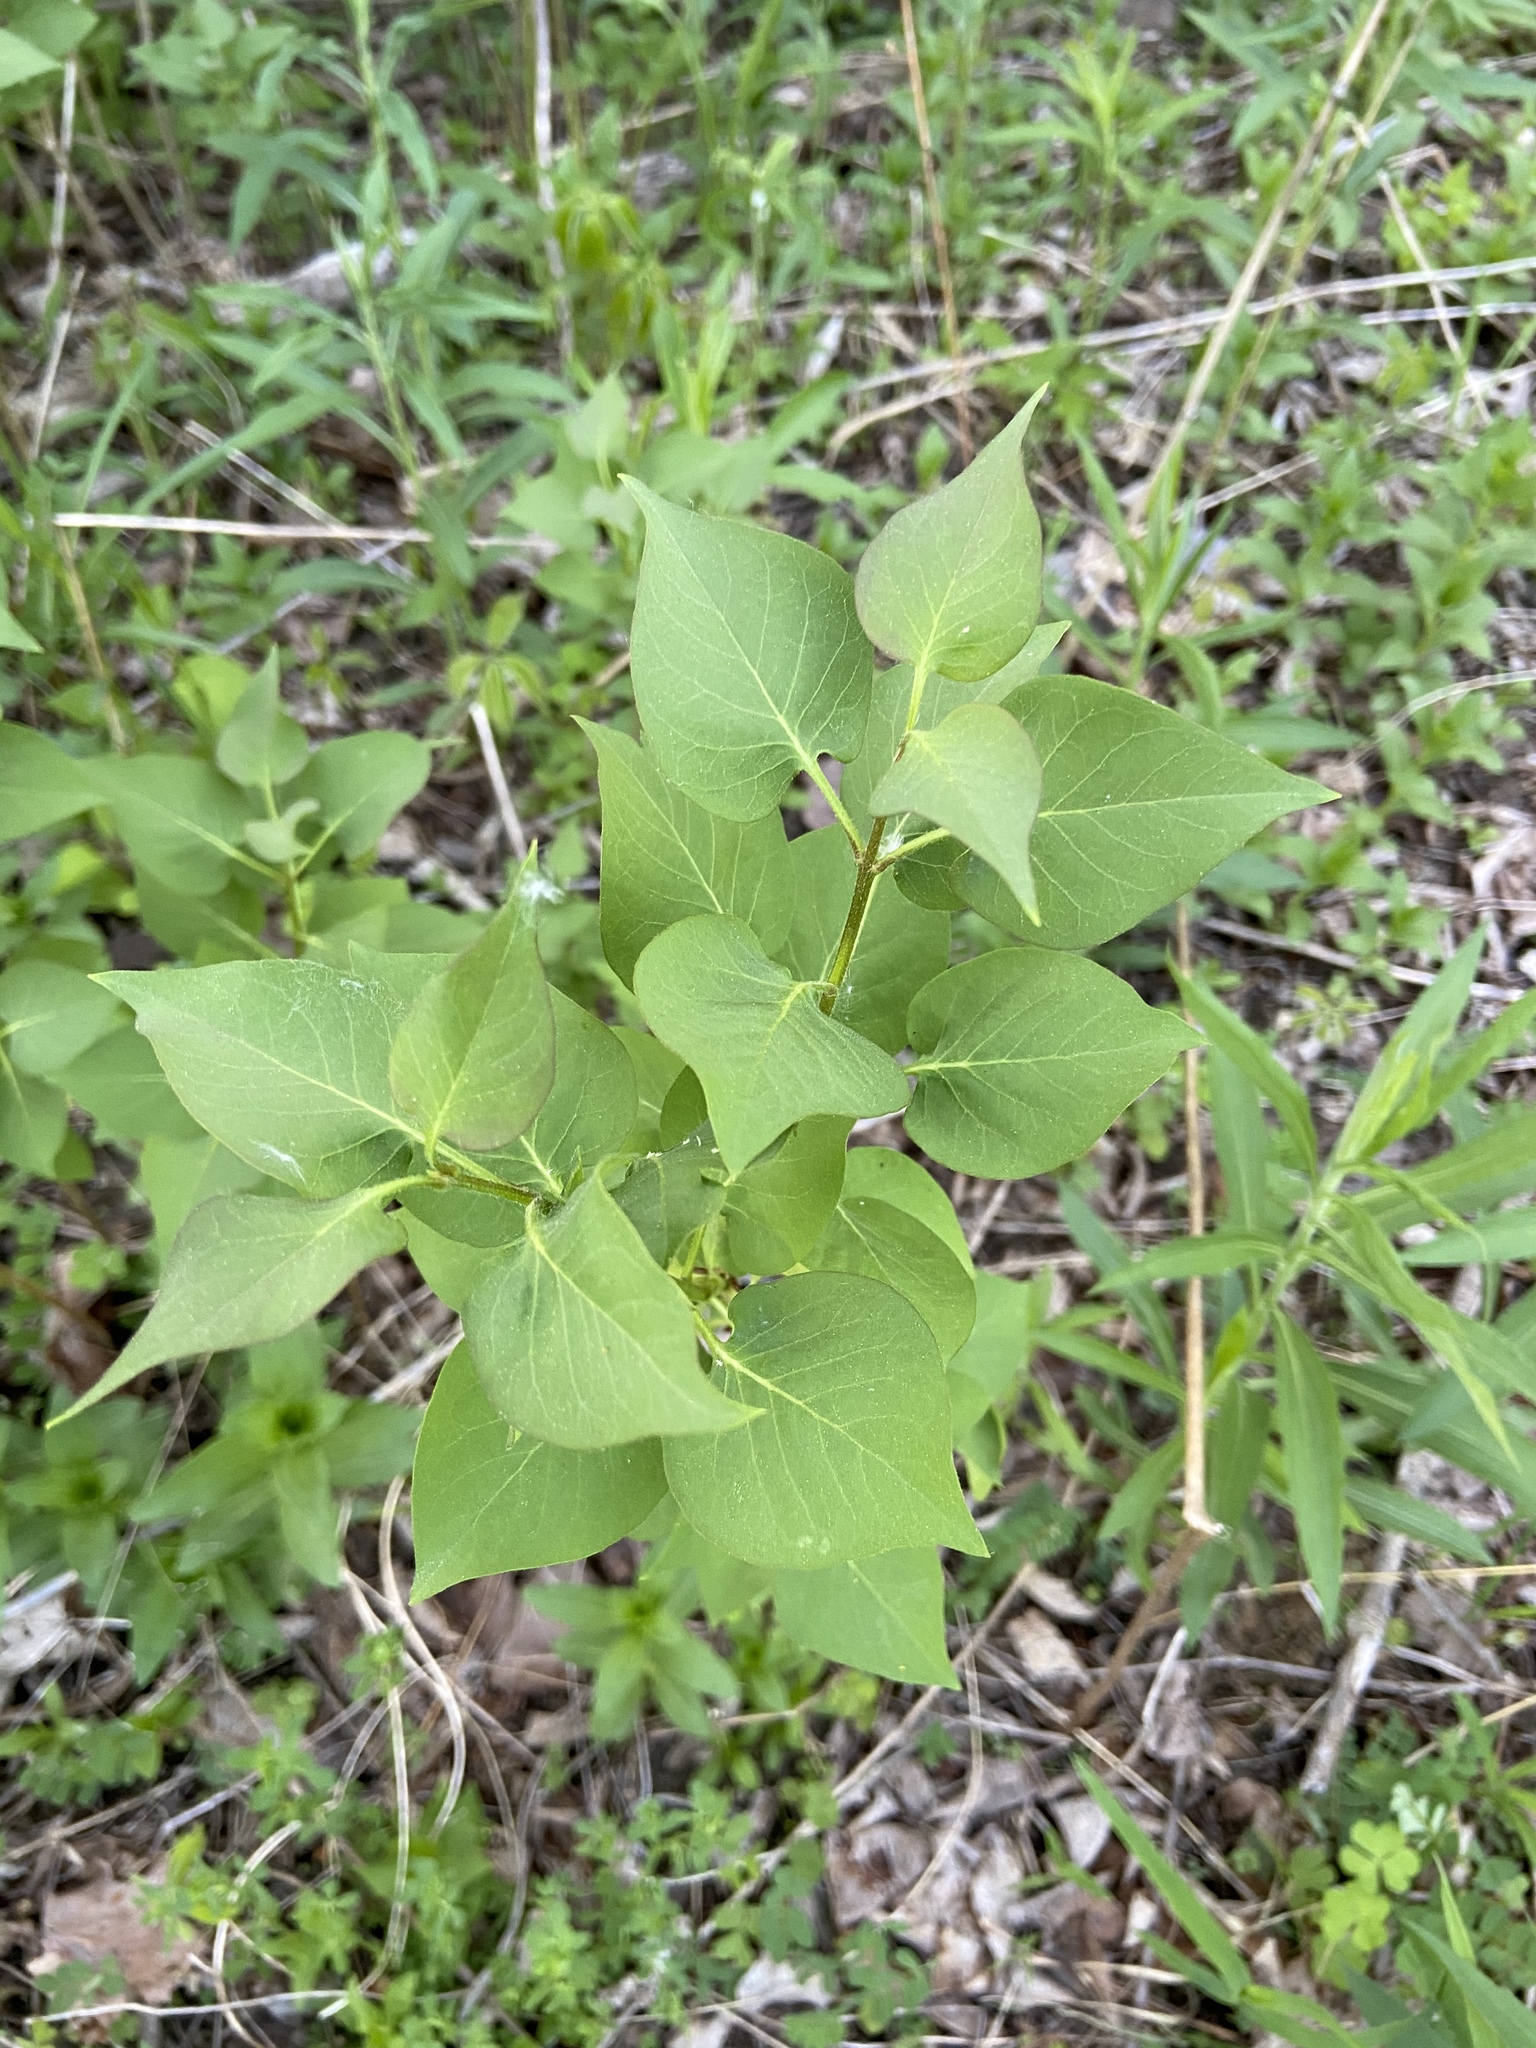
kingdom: Plantae
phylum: Tracheophyta
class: Magnoliopsida
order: Lamiales
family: Oleaceae
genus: Syringa
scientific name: Syringa vulgaris
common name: Common lilac
